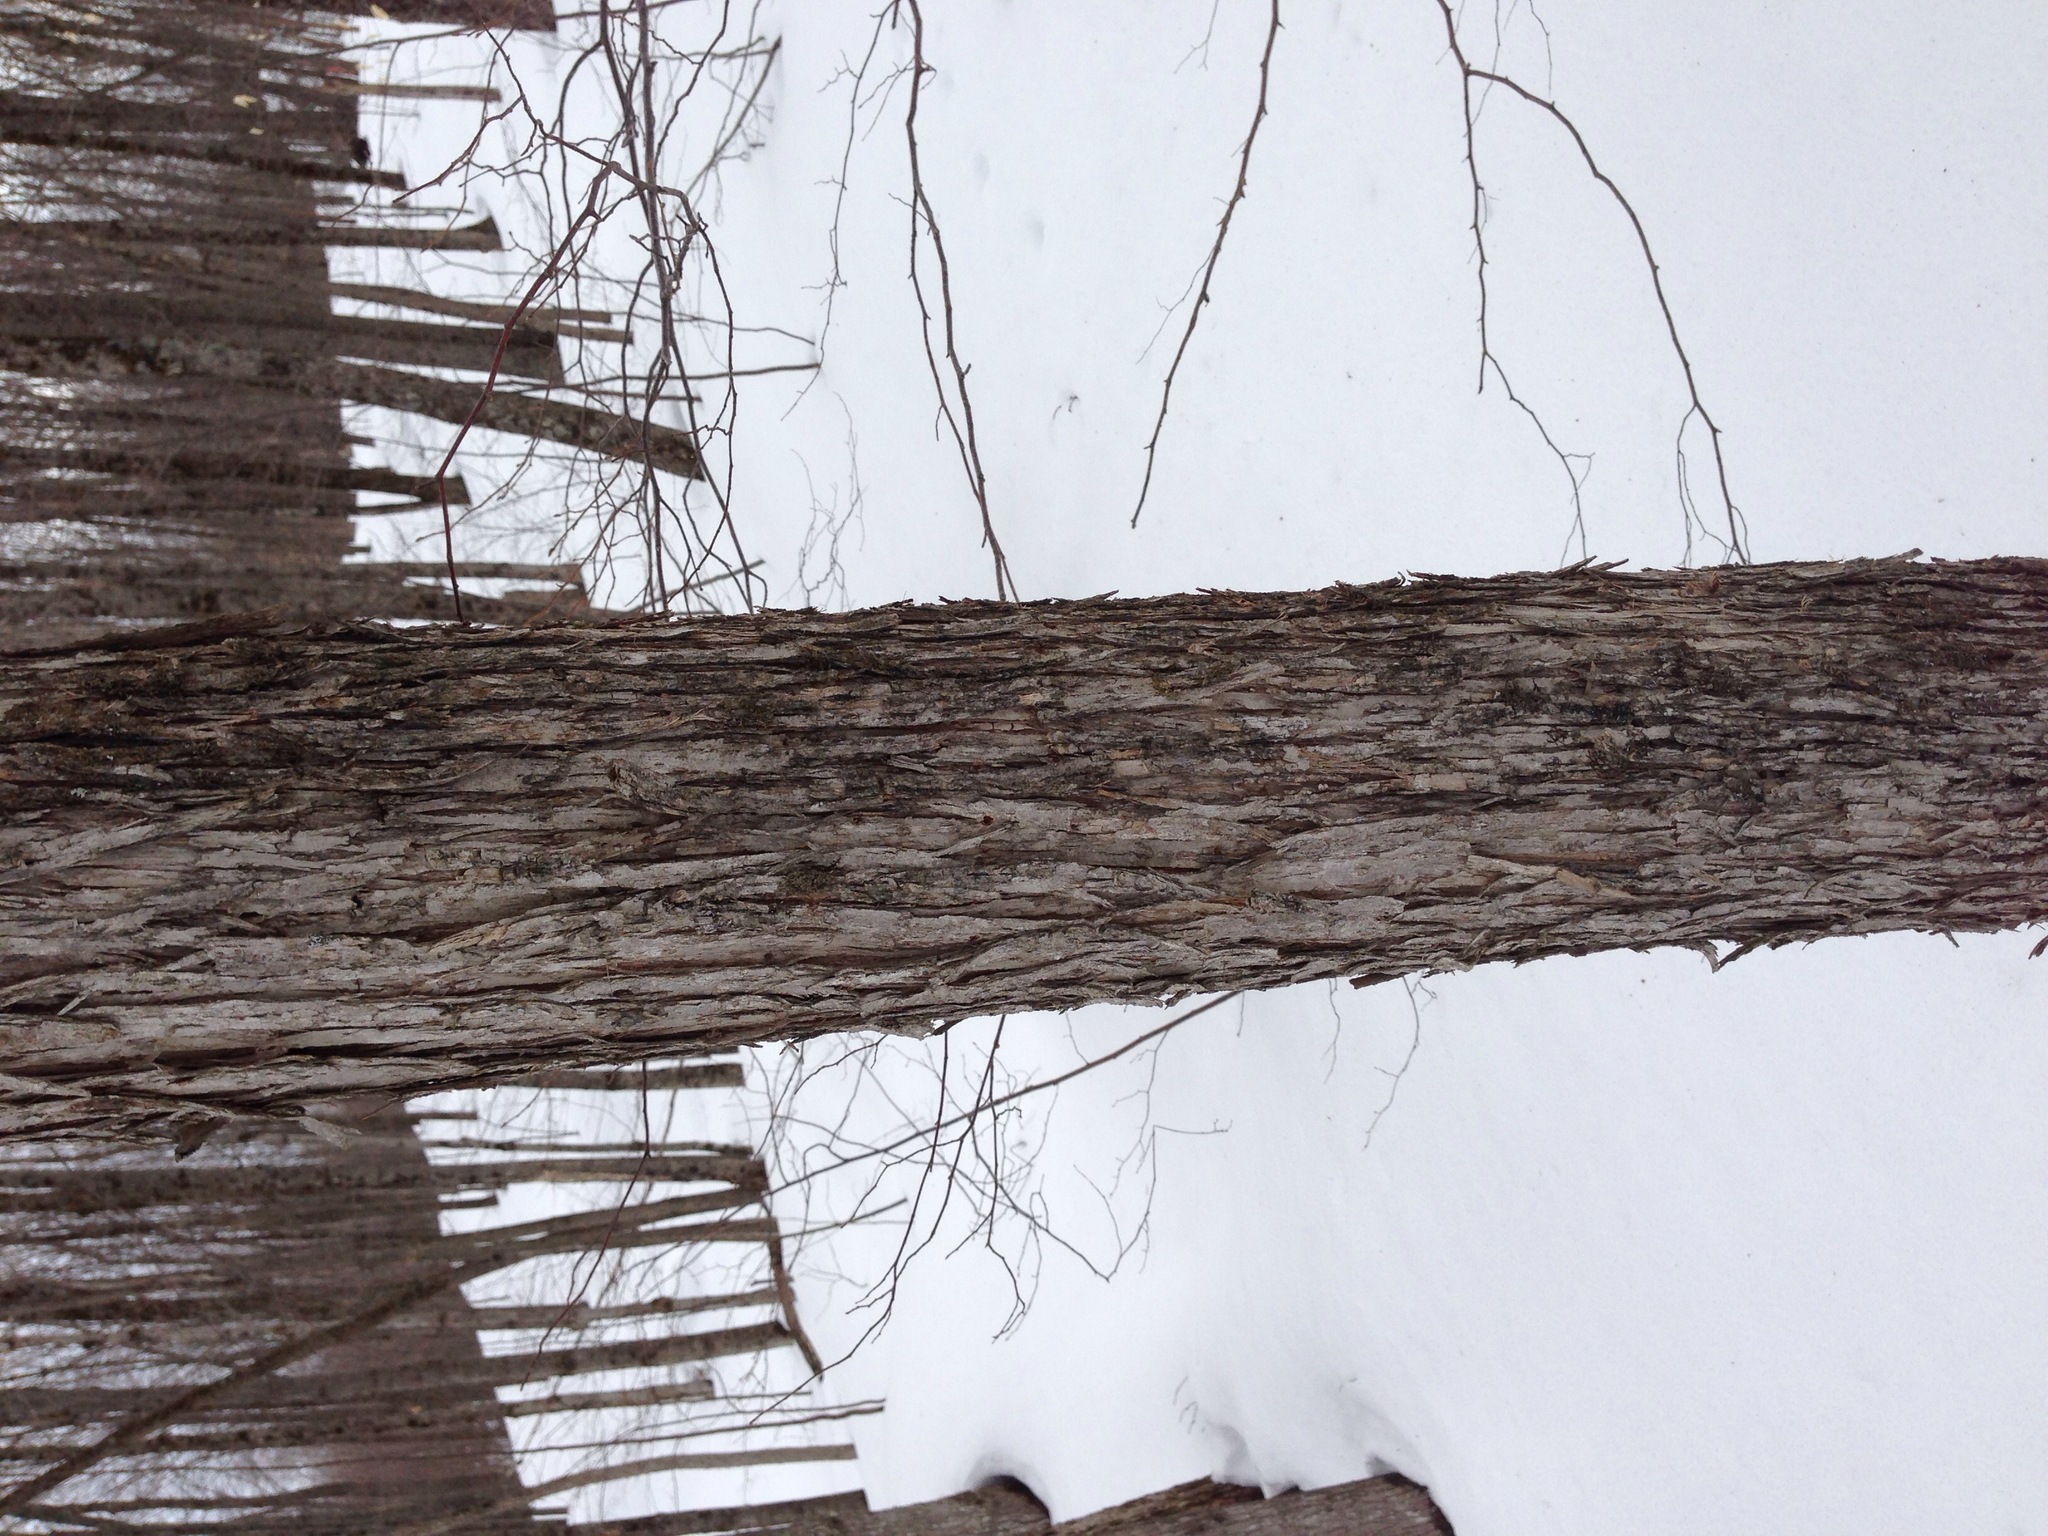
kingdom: Plantae
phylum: Tracheophyta
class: Magnoliopsida
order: Fagales
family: Betulaceae
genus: Ostrya
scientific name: Ostrya virginiana
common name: Ironwood
